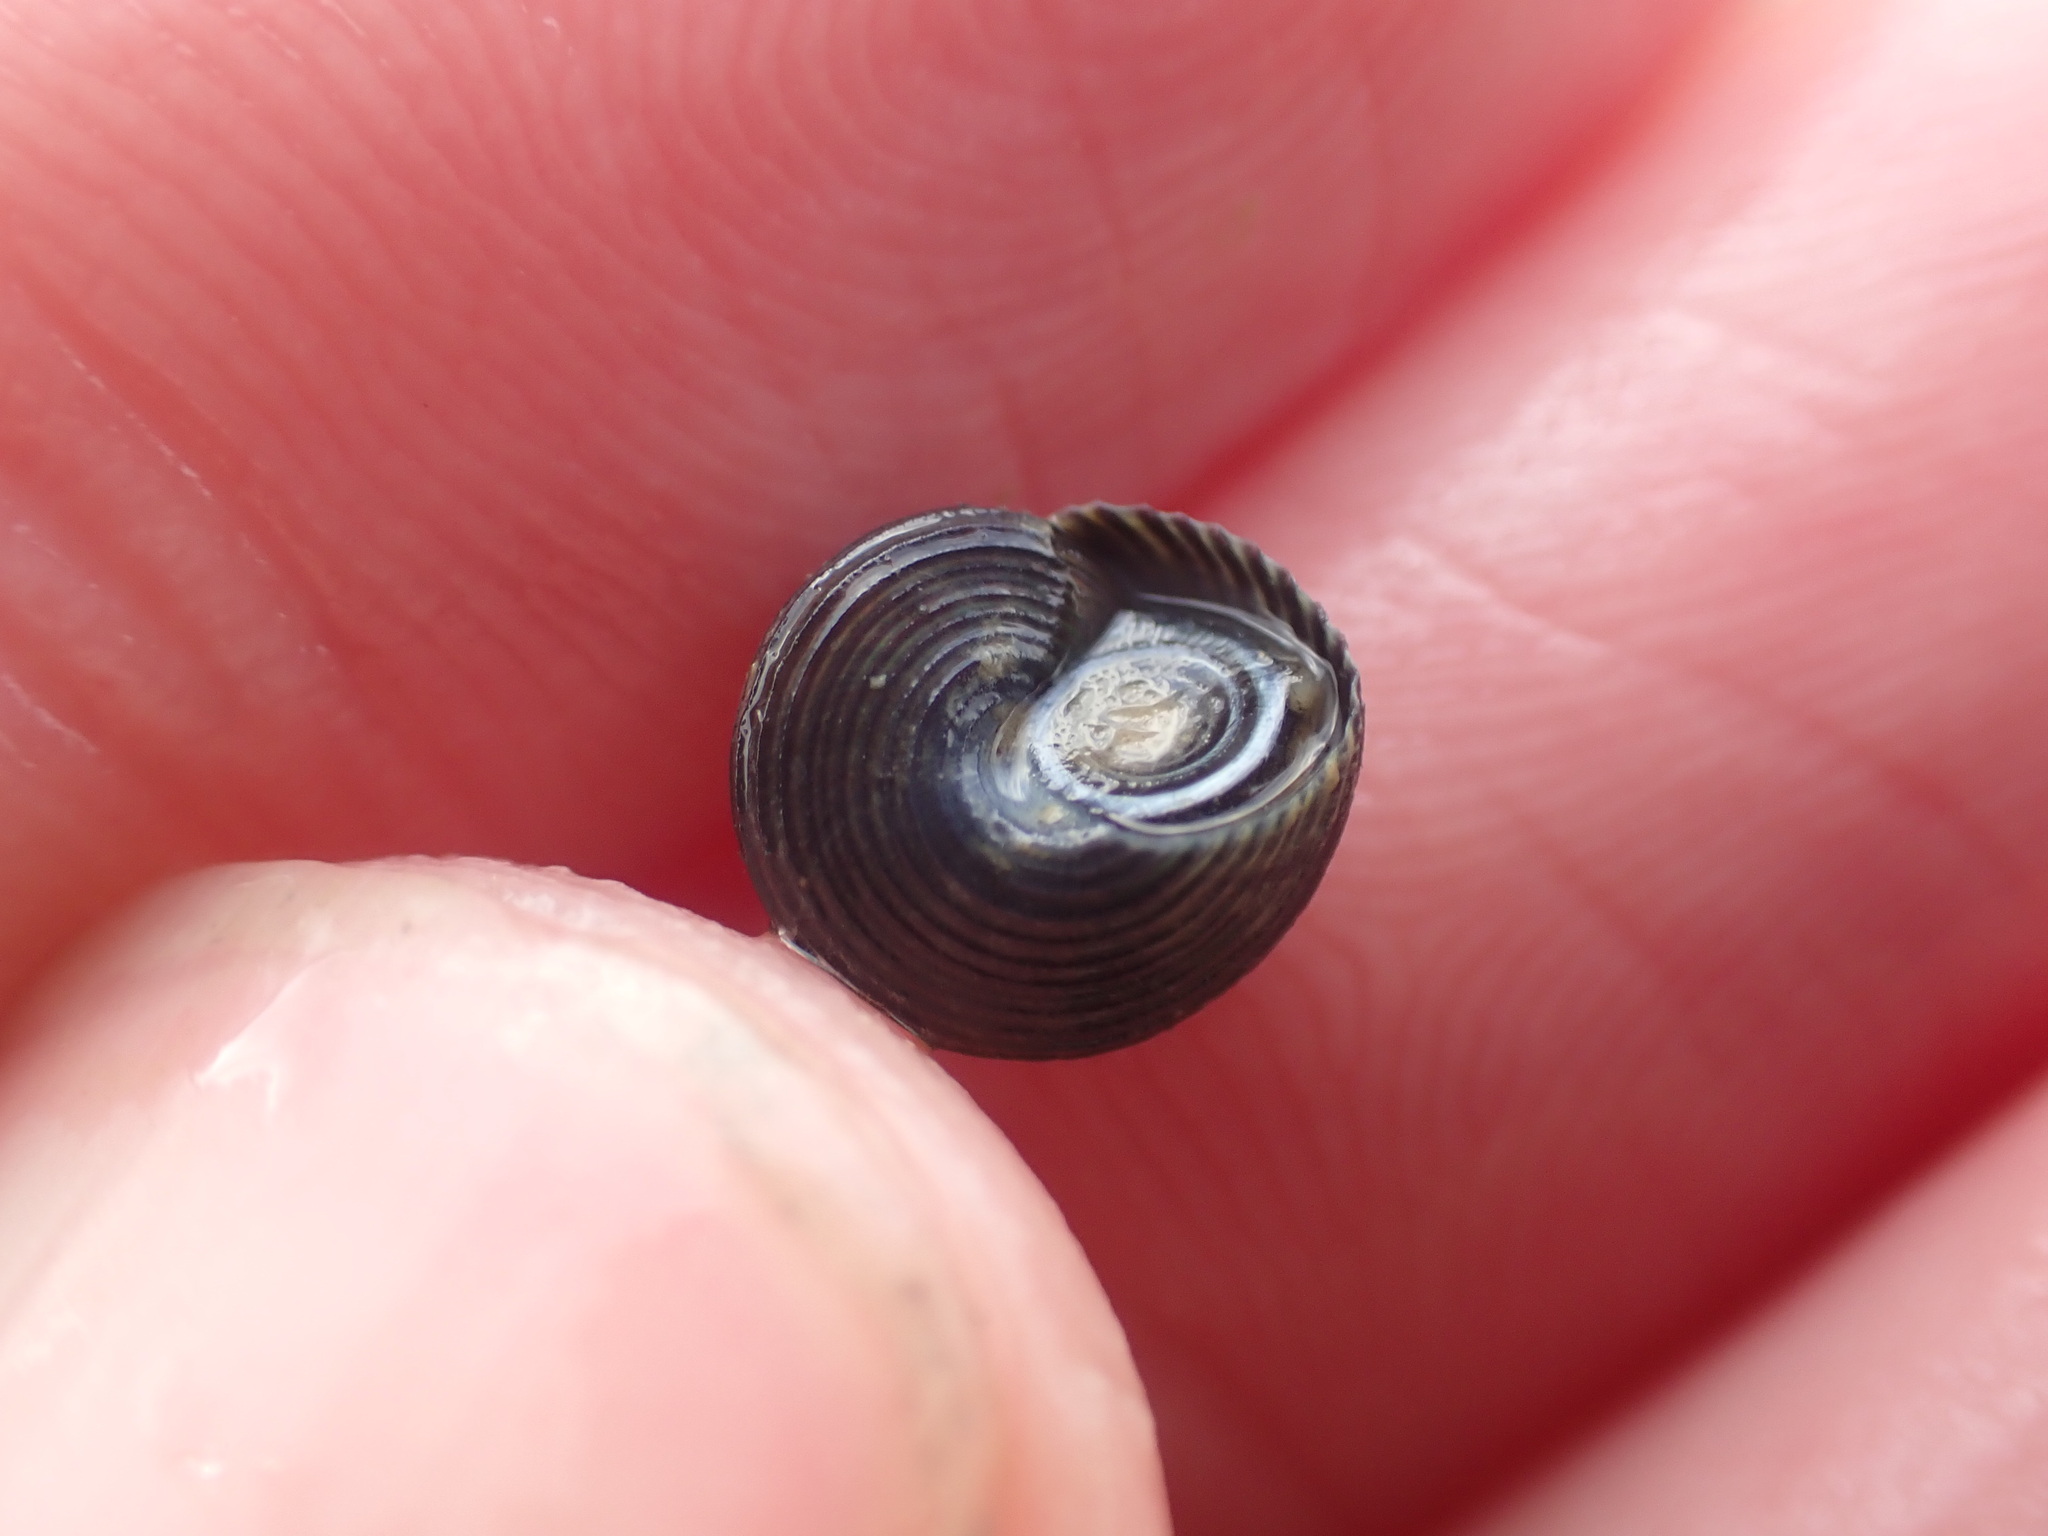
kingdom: Animalia
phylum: Mollusca
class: Gastropoda
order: Trochida
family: Trochidae
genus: Micrelenchus
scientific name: Micrelenchus huttonii
